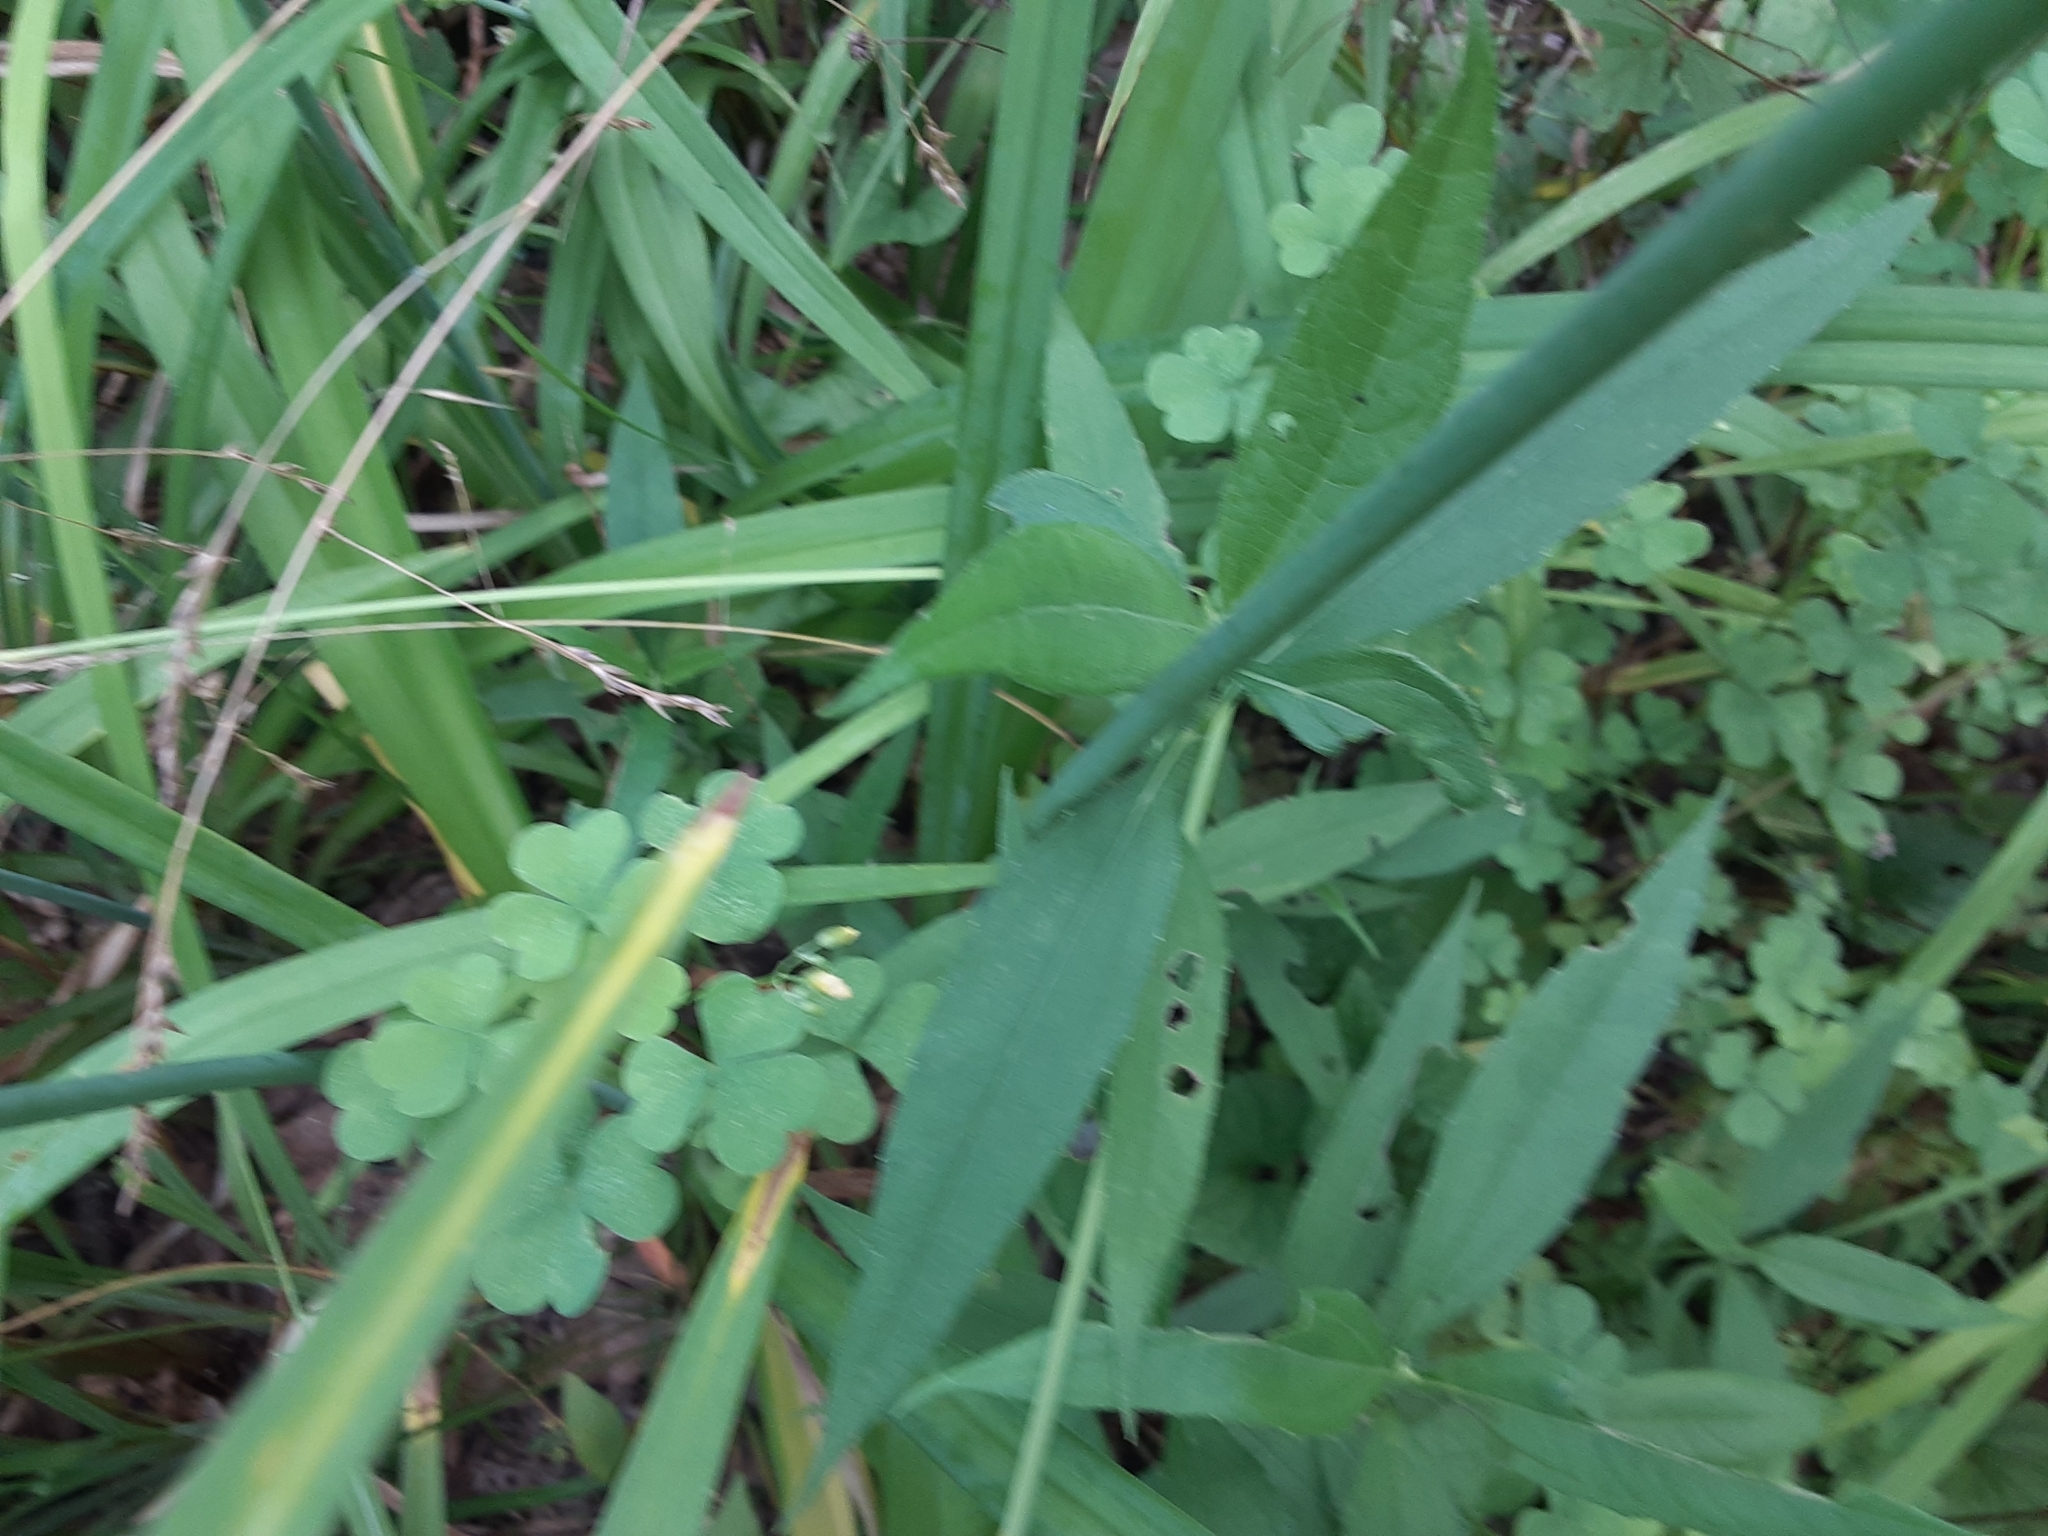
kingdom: Plantae
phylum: Tracheophyta
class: Liliopsida
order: Asparagales
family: Asphodelaceae
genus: Hemerocallis
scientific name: Hemerocallis fulva
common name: Orange day-lily
